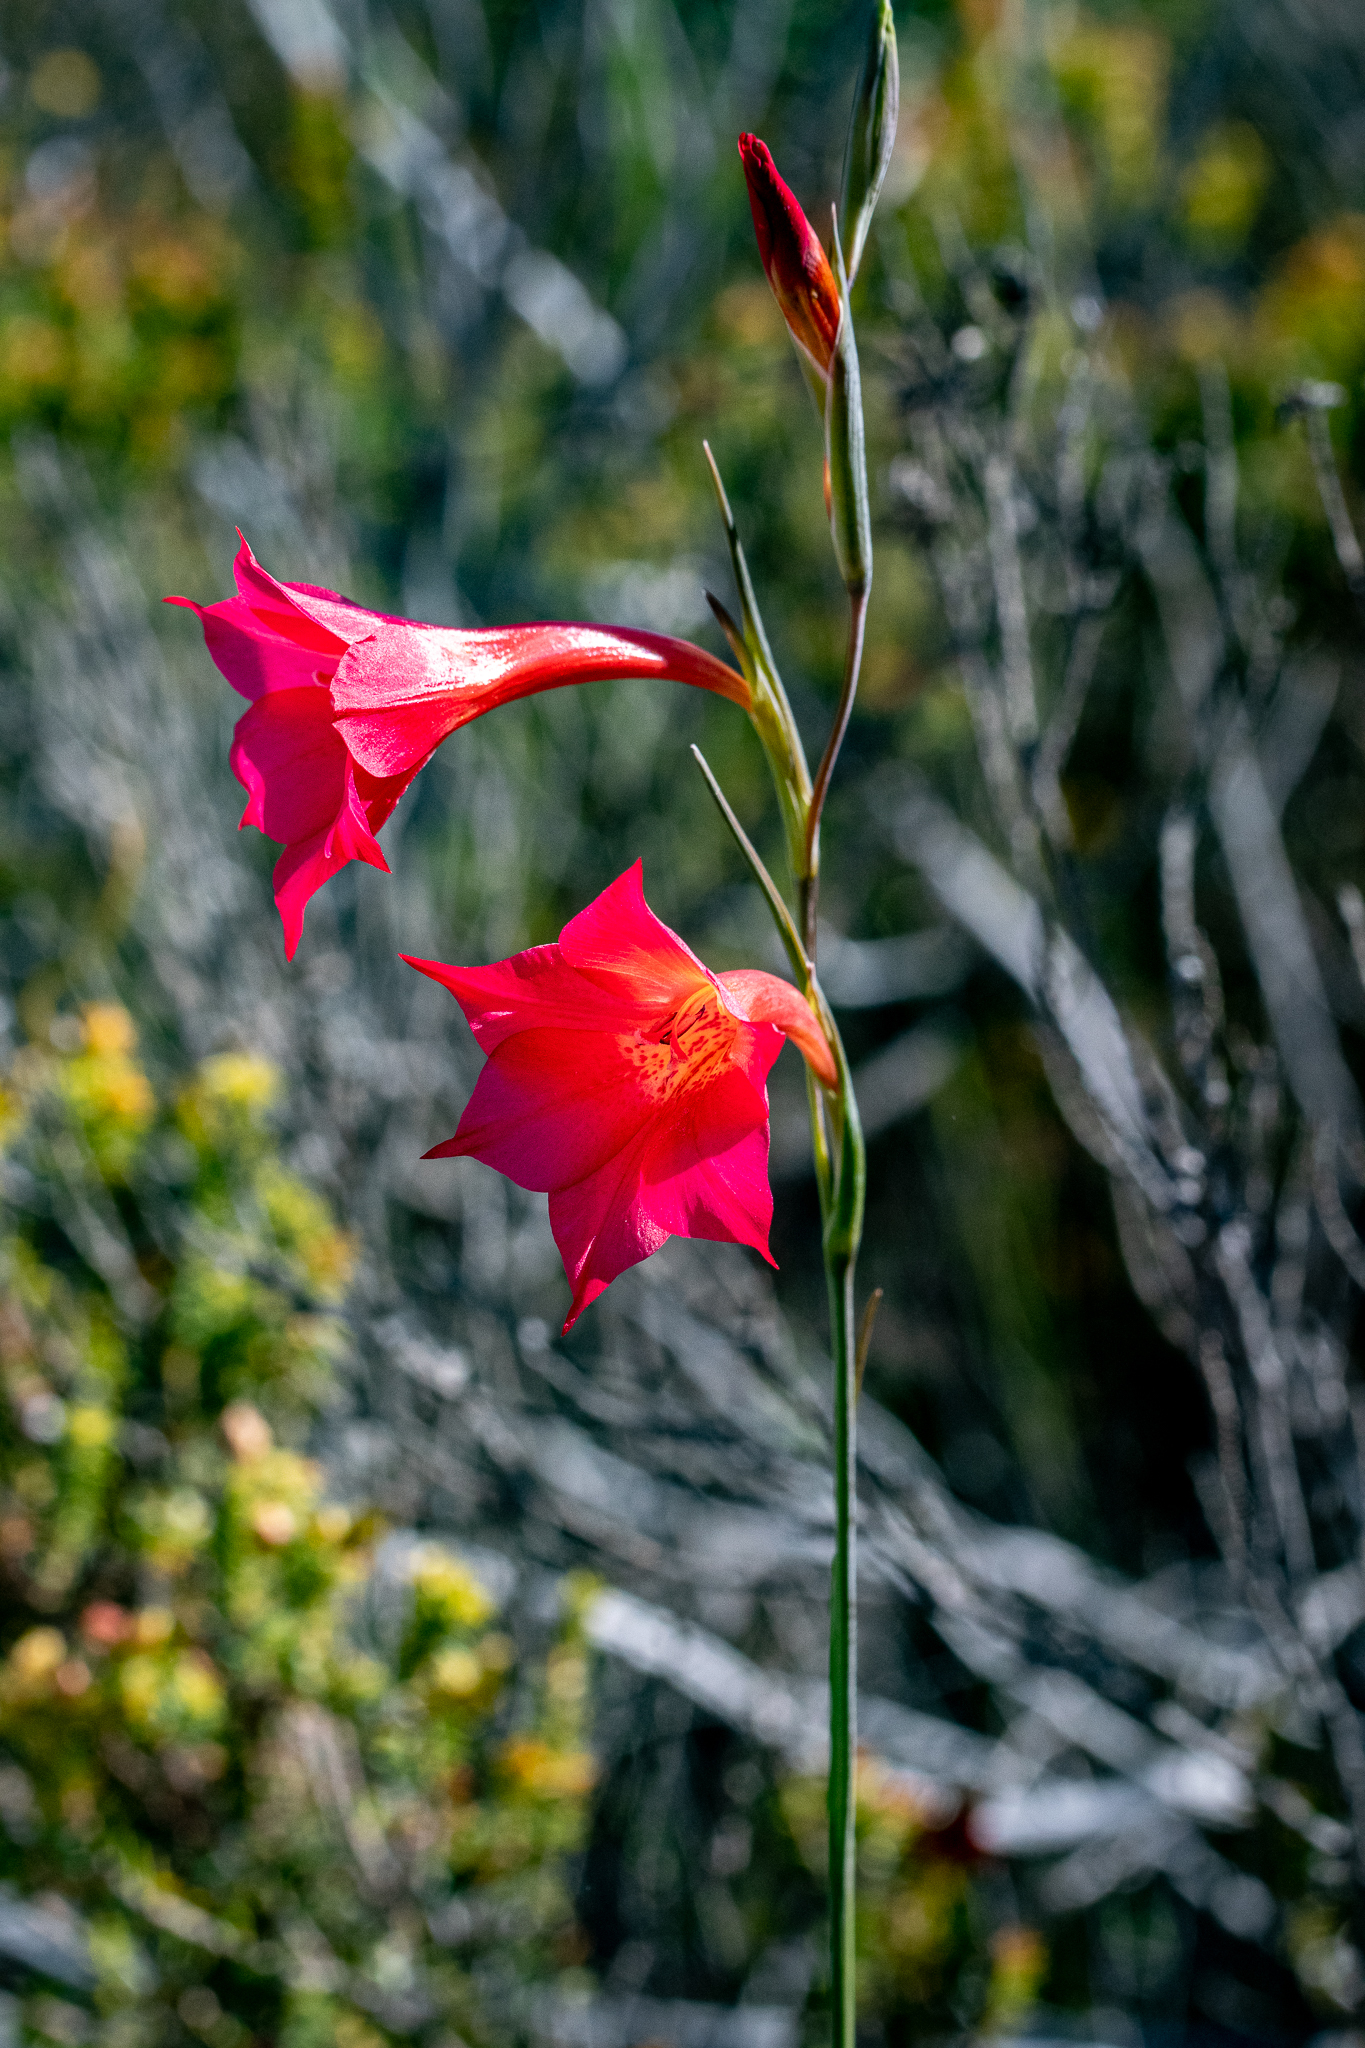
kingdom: Plantae
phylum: Tracheophyta
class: Liliopsida
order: Asparagales
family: Iridaceae
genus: Gladiolus
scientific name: Gladiolus meridionalis
